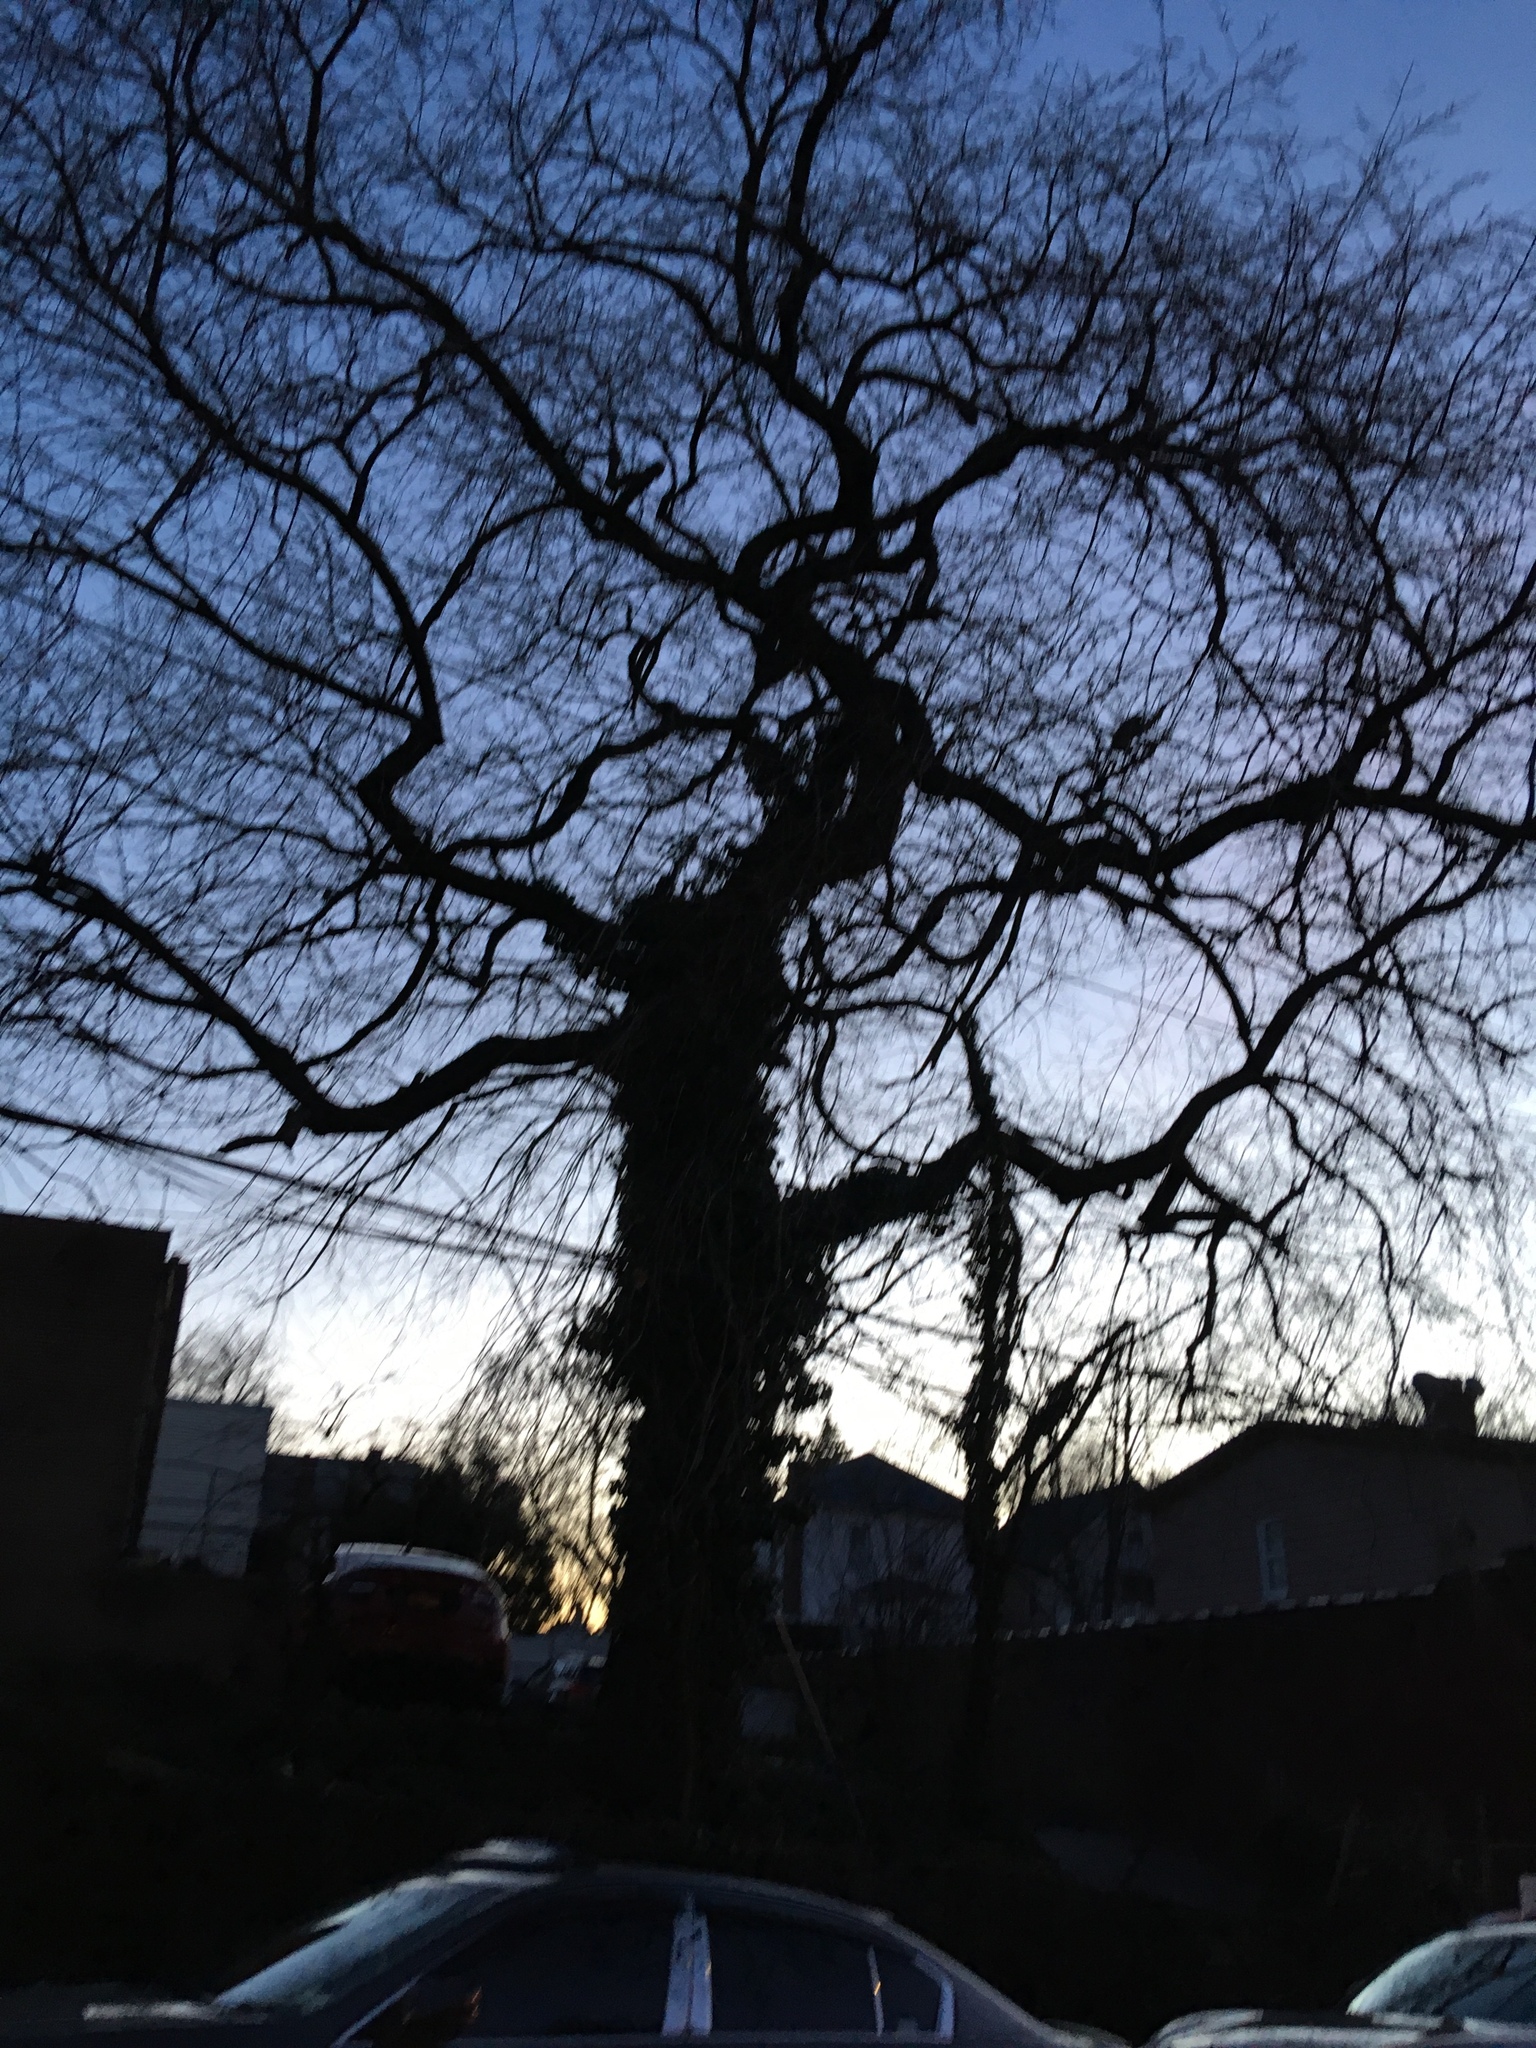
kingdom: Plantae
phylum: Tracheophyta
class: Magnoliopsida
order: Apiales
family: Araliaceae
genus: Hedera
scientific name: Hedera helix
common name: Ivy
